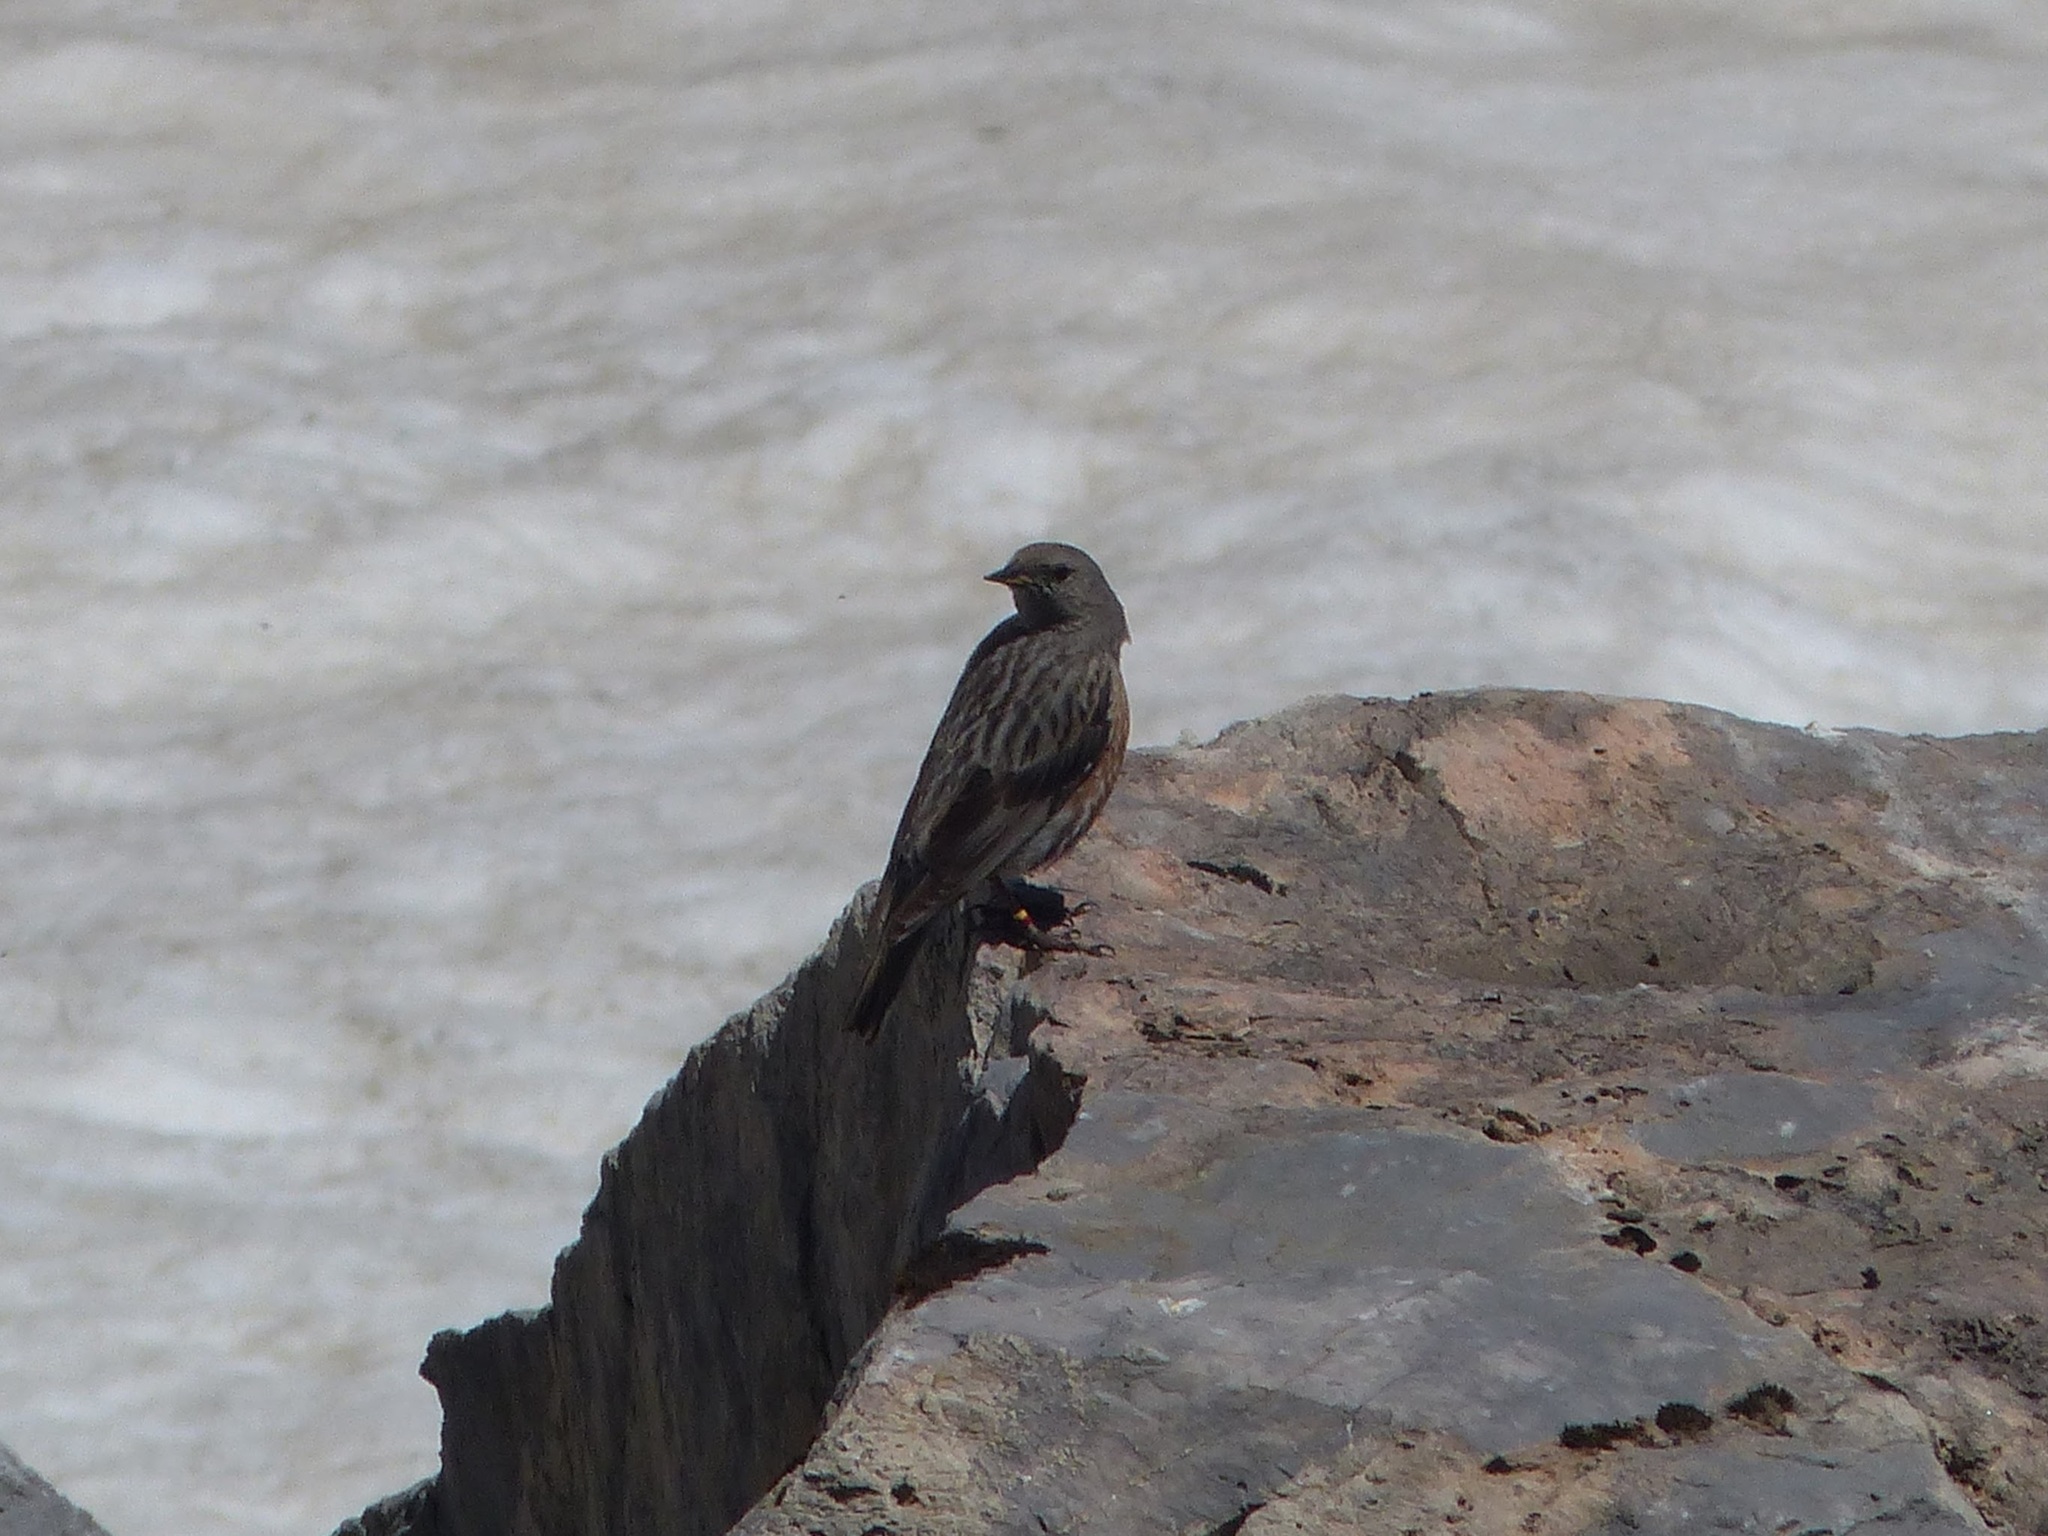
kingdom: Animalia
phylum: Chordata
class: Aves
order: Passeriformes
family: Prunellidae
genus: Prunella
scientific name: Prunella collaris
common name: Alpine accentor
